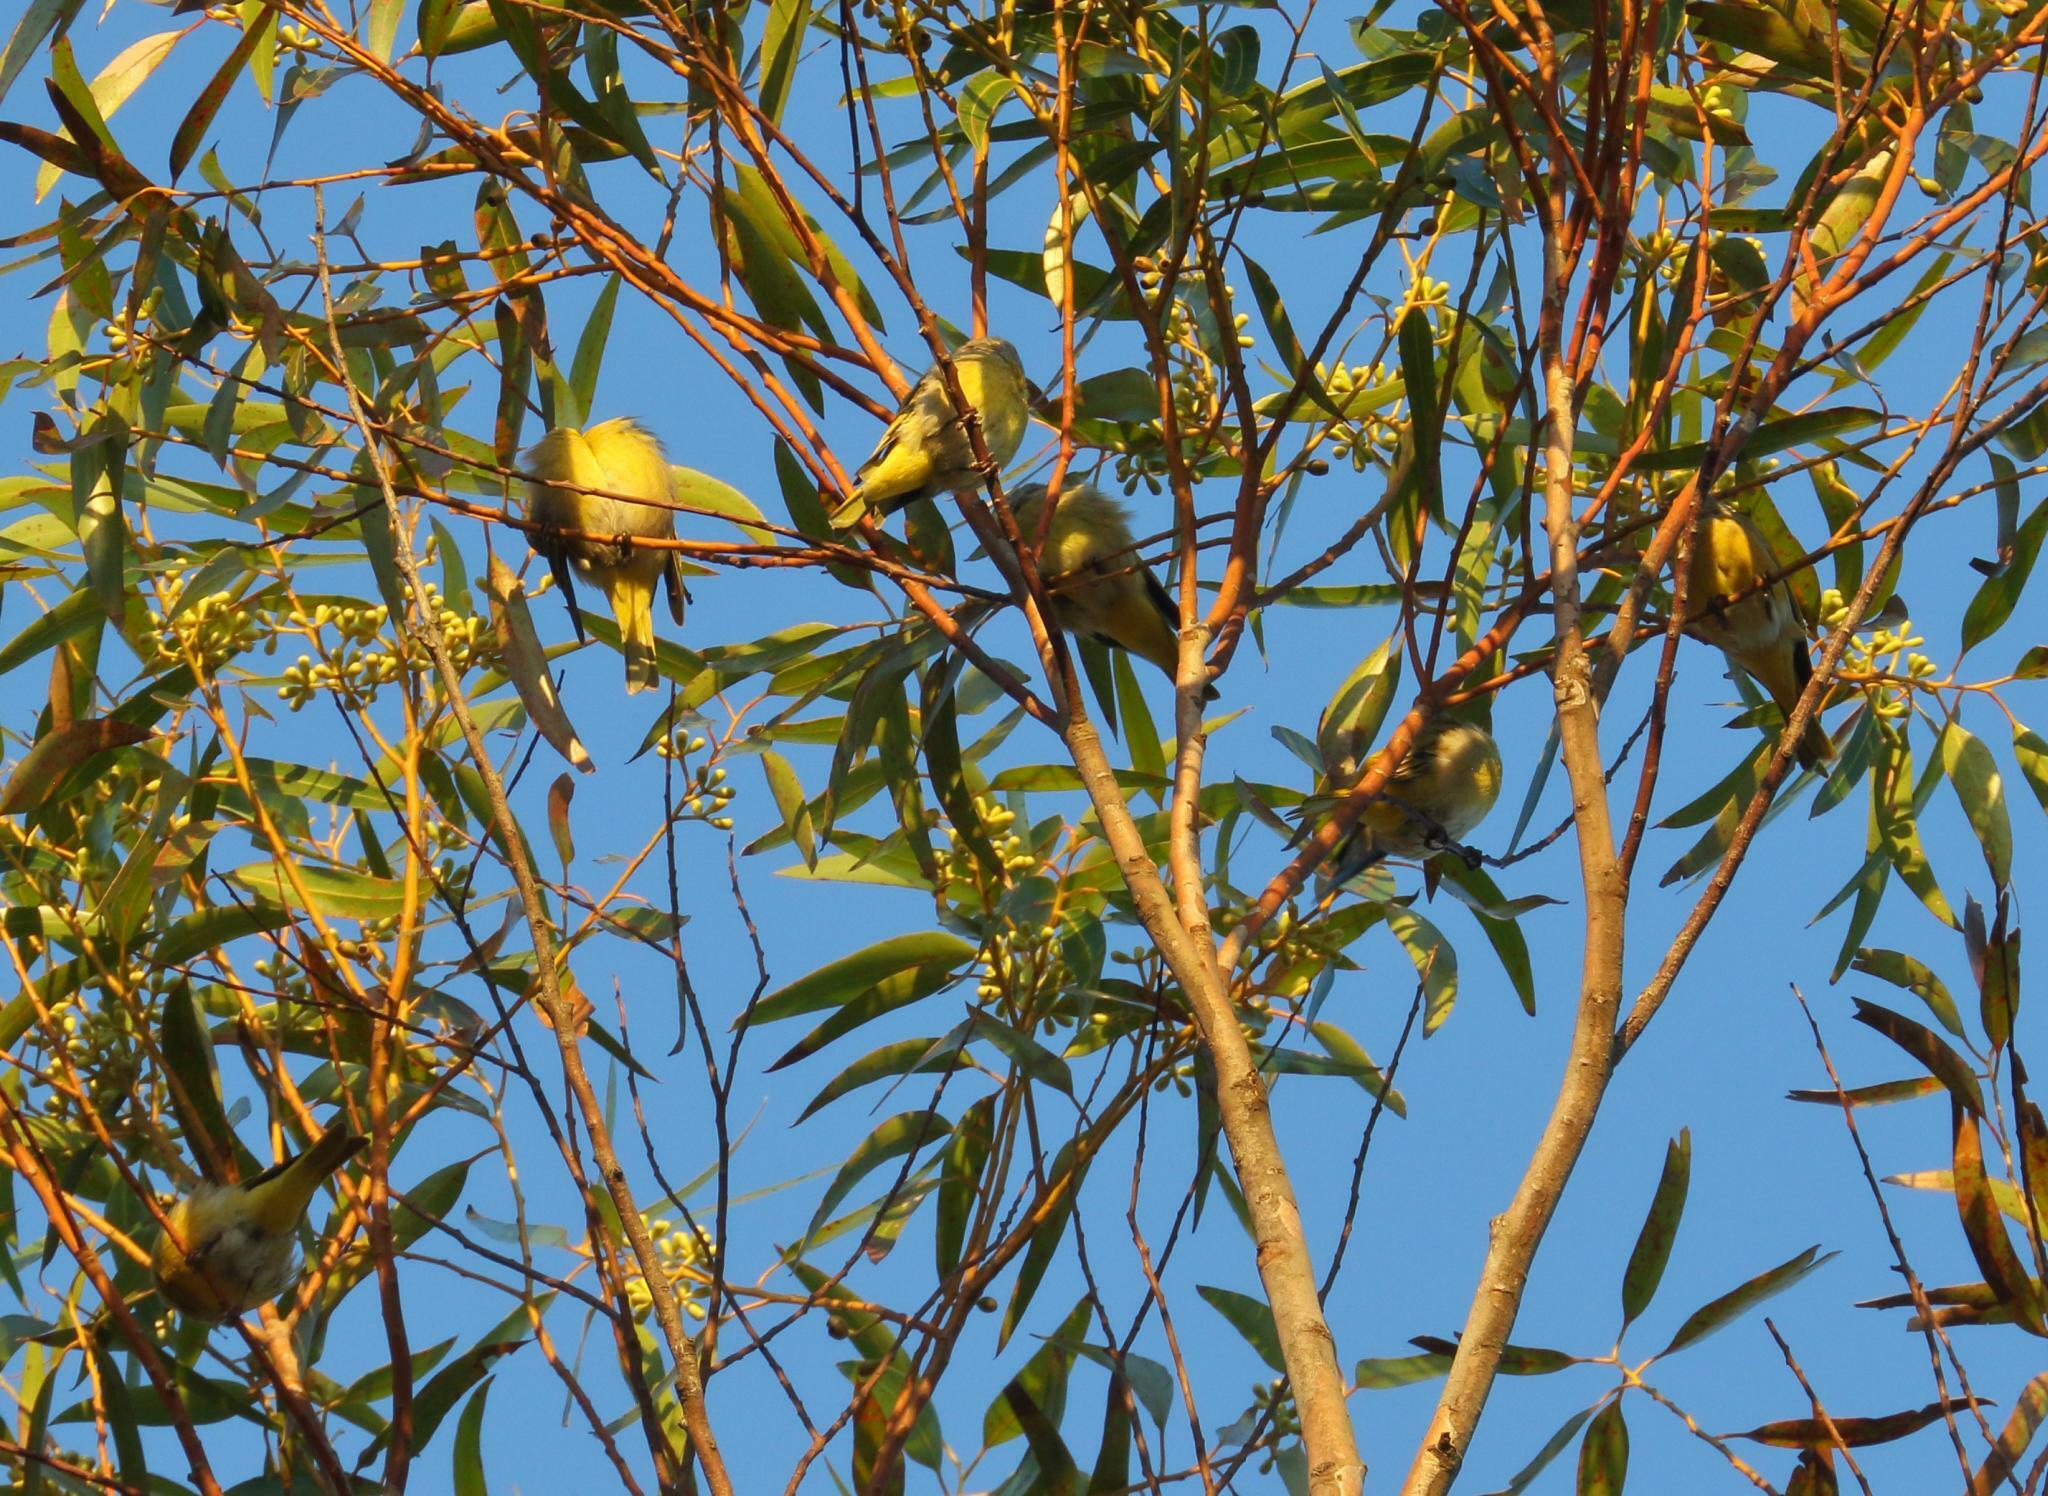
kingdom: Animalia
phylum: Chordata
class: Aves
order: Passeriformes
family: Fringillidae
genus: Serinus
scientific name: Serinus canicollis
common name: Cape canary
